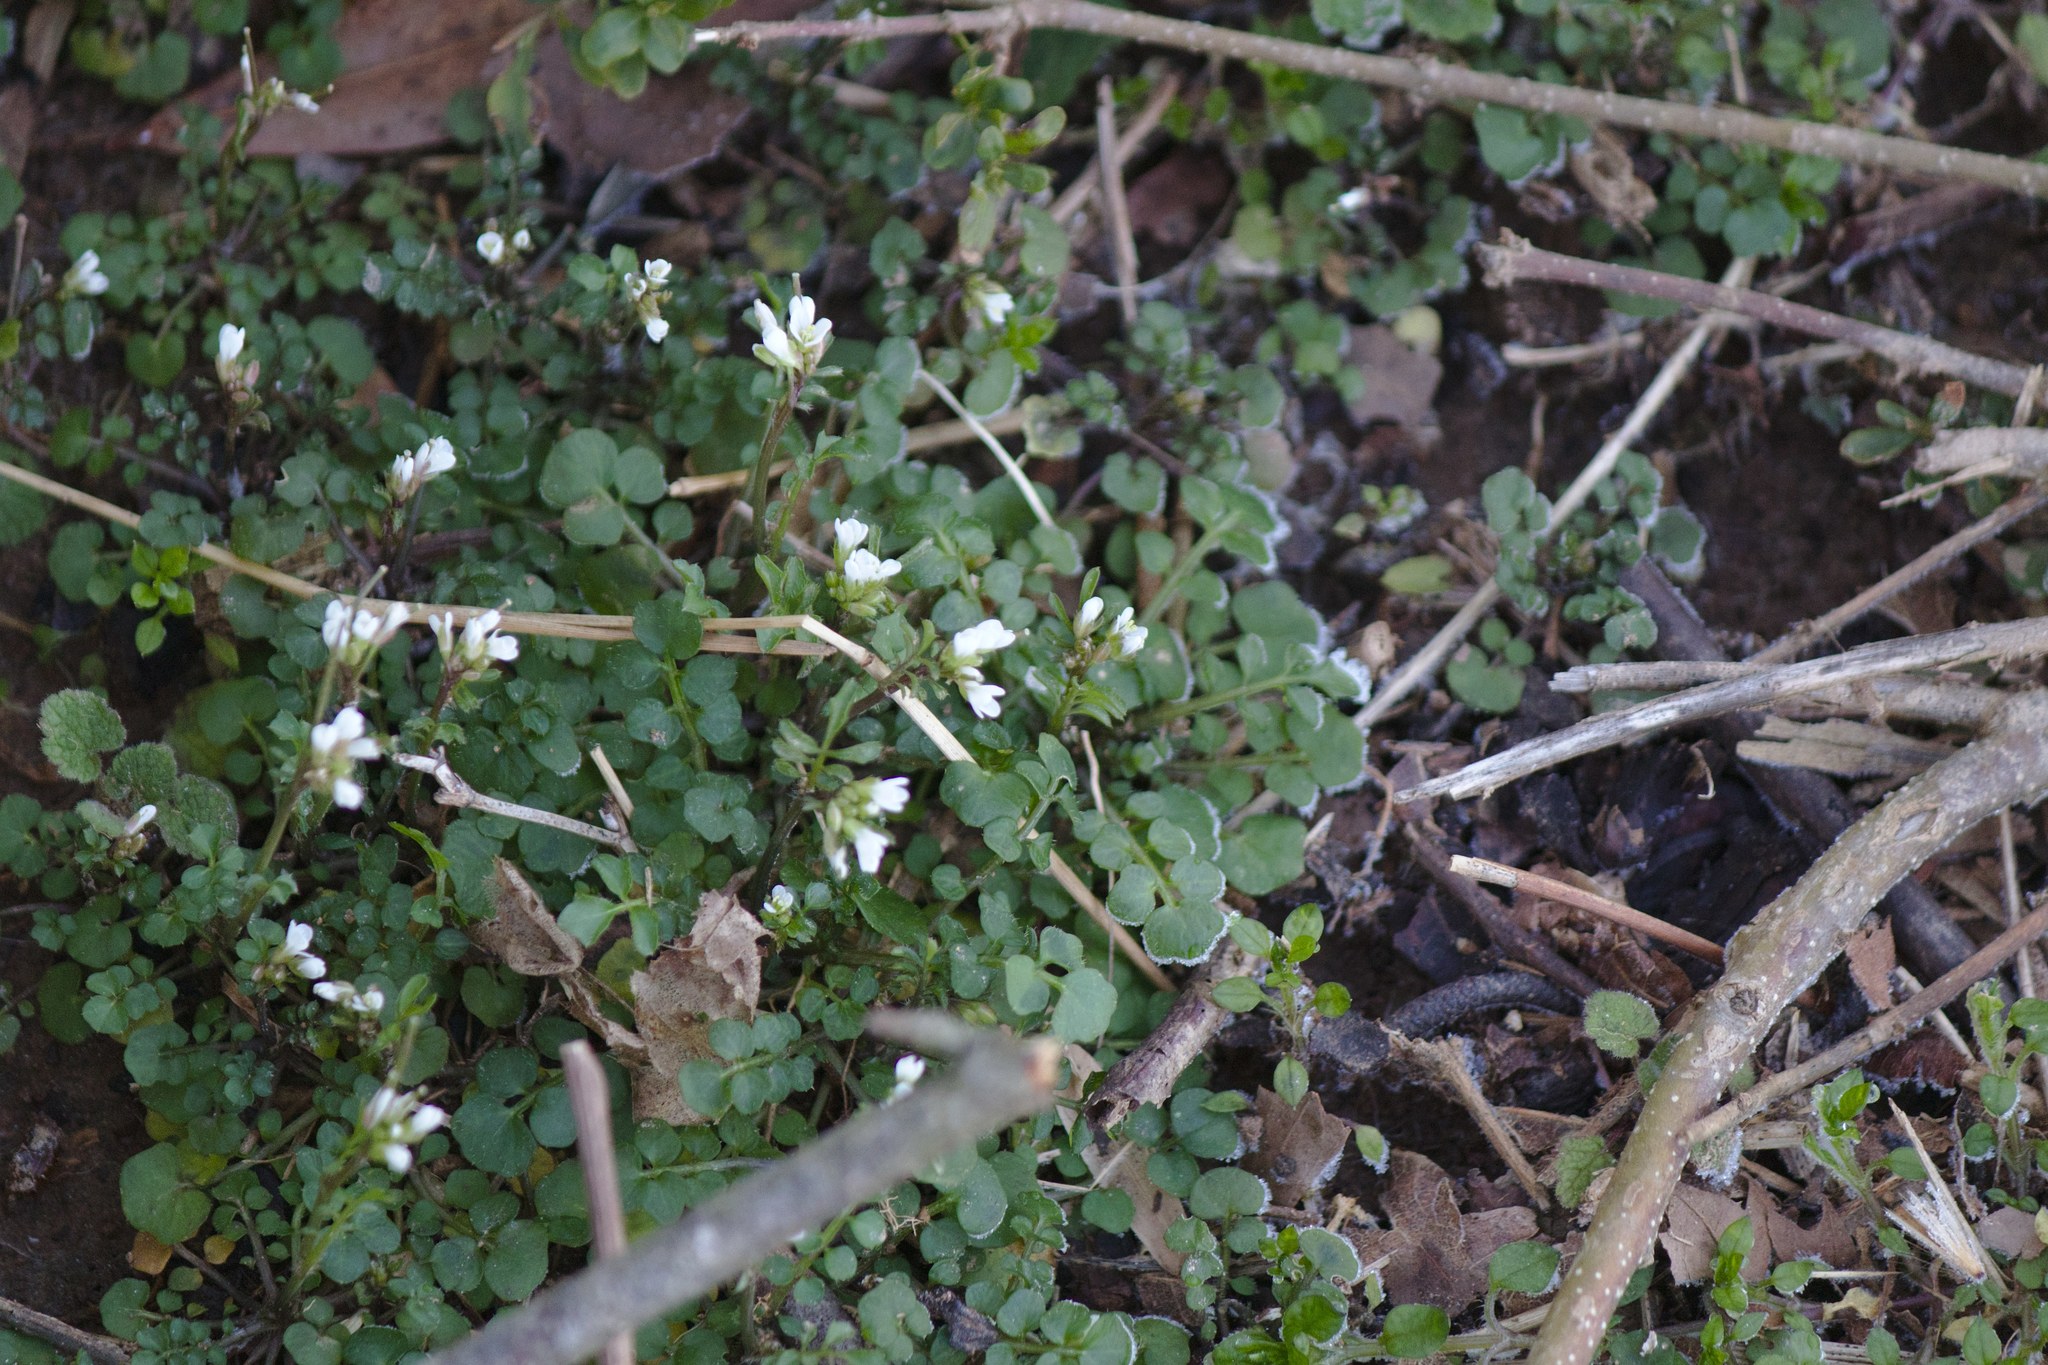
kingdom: Plantae
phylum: Tracheophyta
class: Magnoliopsida
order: Brassicales
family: Brassicaceae
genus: Cardamine
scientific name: Cardamine hirsuta
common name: Hairy bittercress
